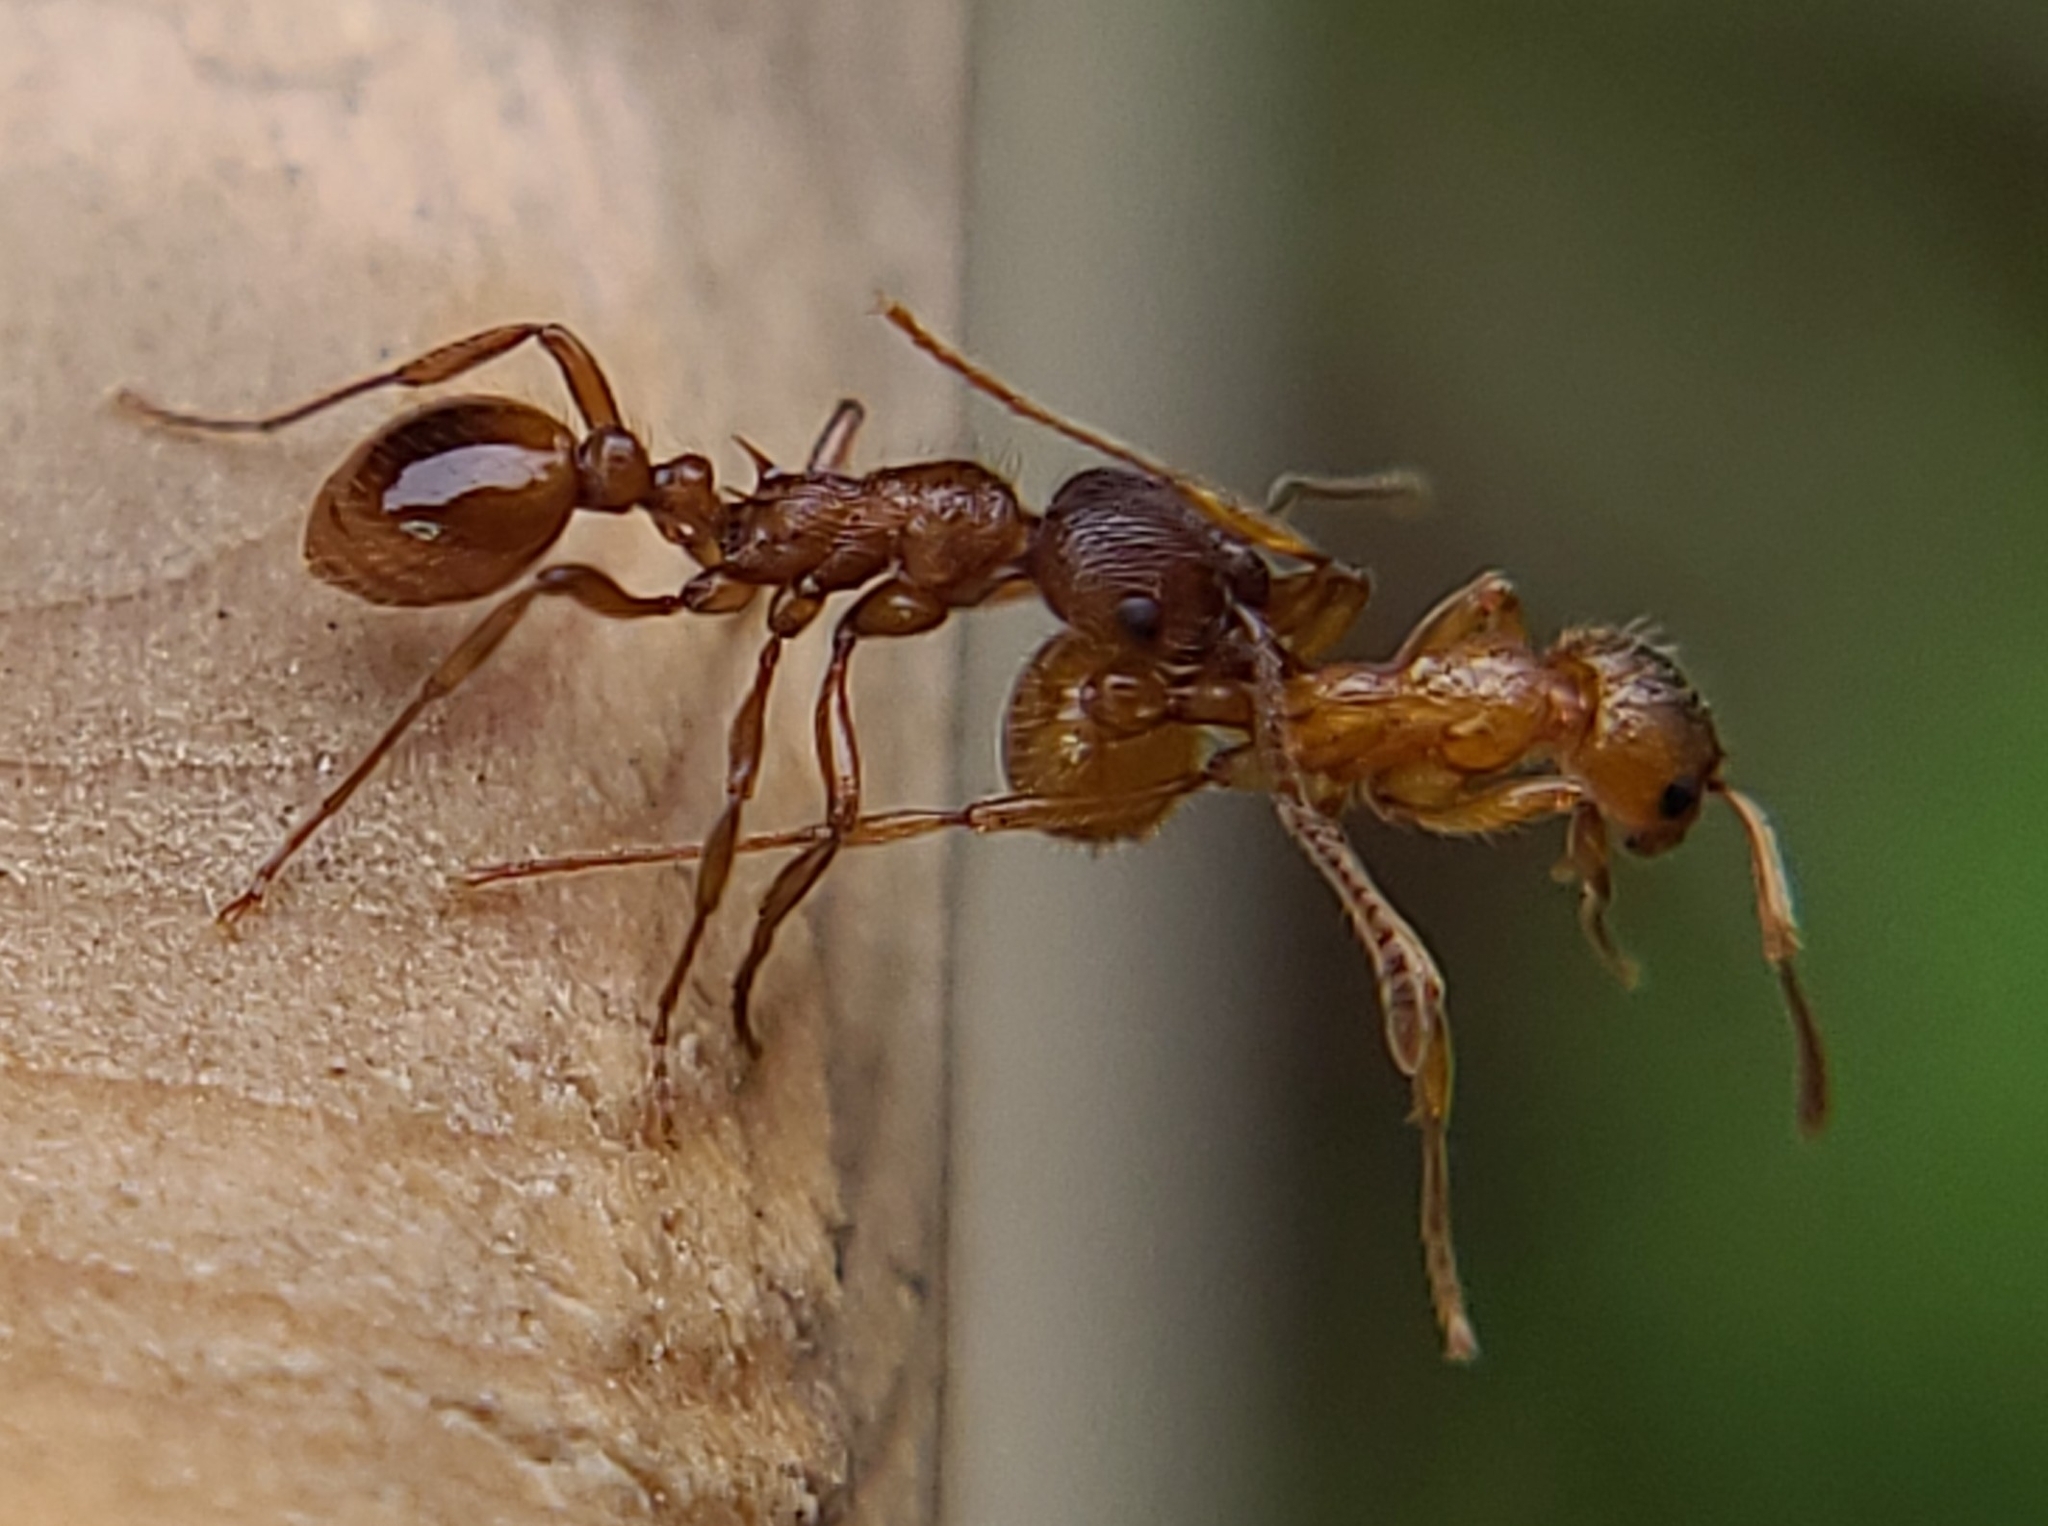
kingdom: Animalia
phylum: Arthropoda
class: Insecta
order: Hymenoptera
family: Formicidae
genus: Myrmica
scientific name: Myrmica rubra
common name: European fire ant
